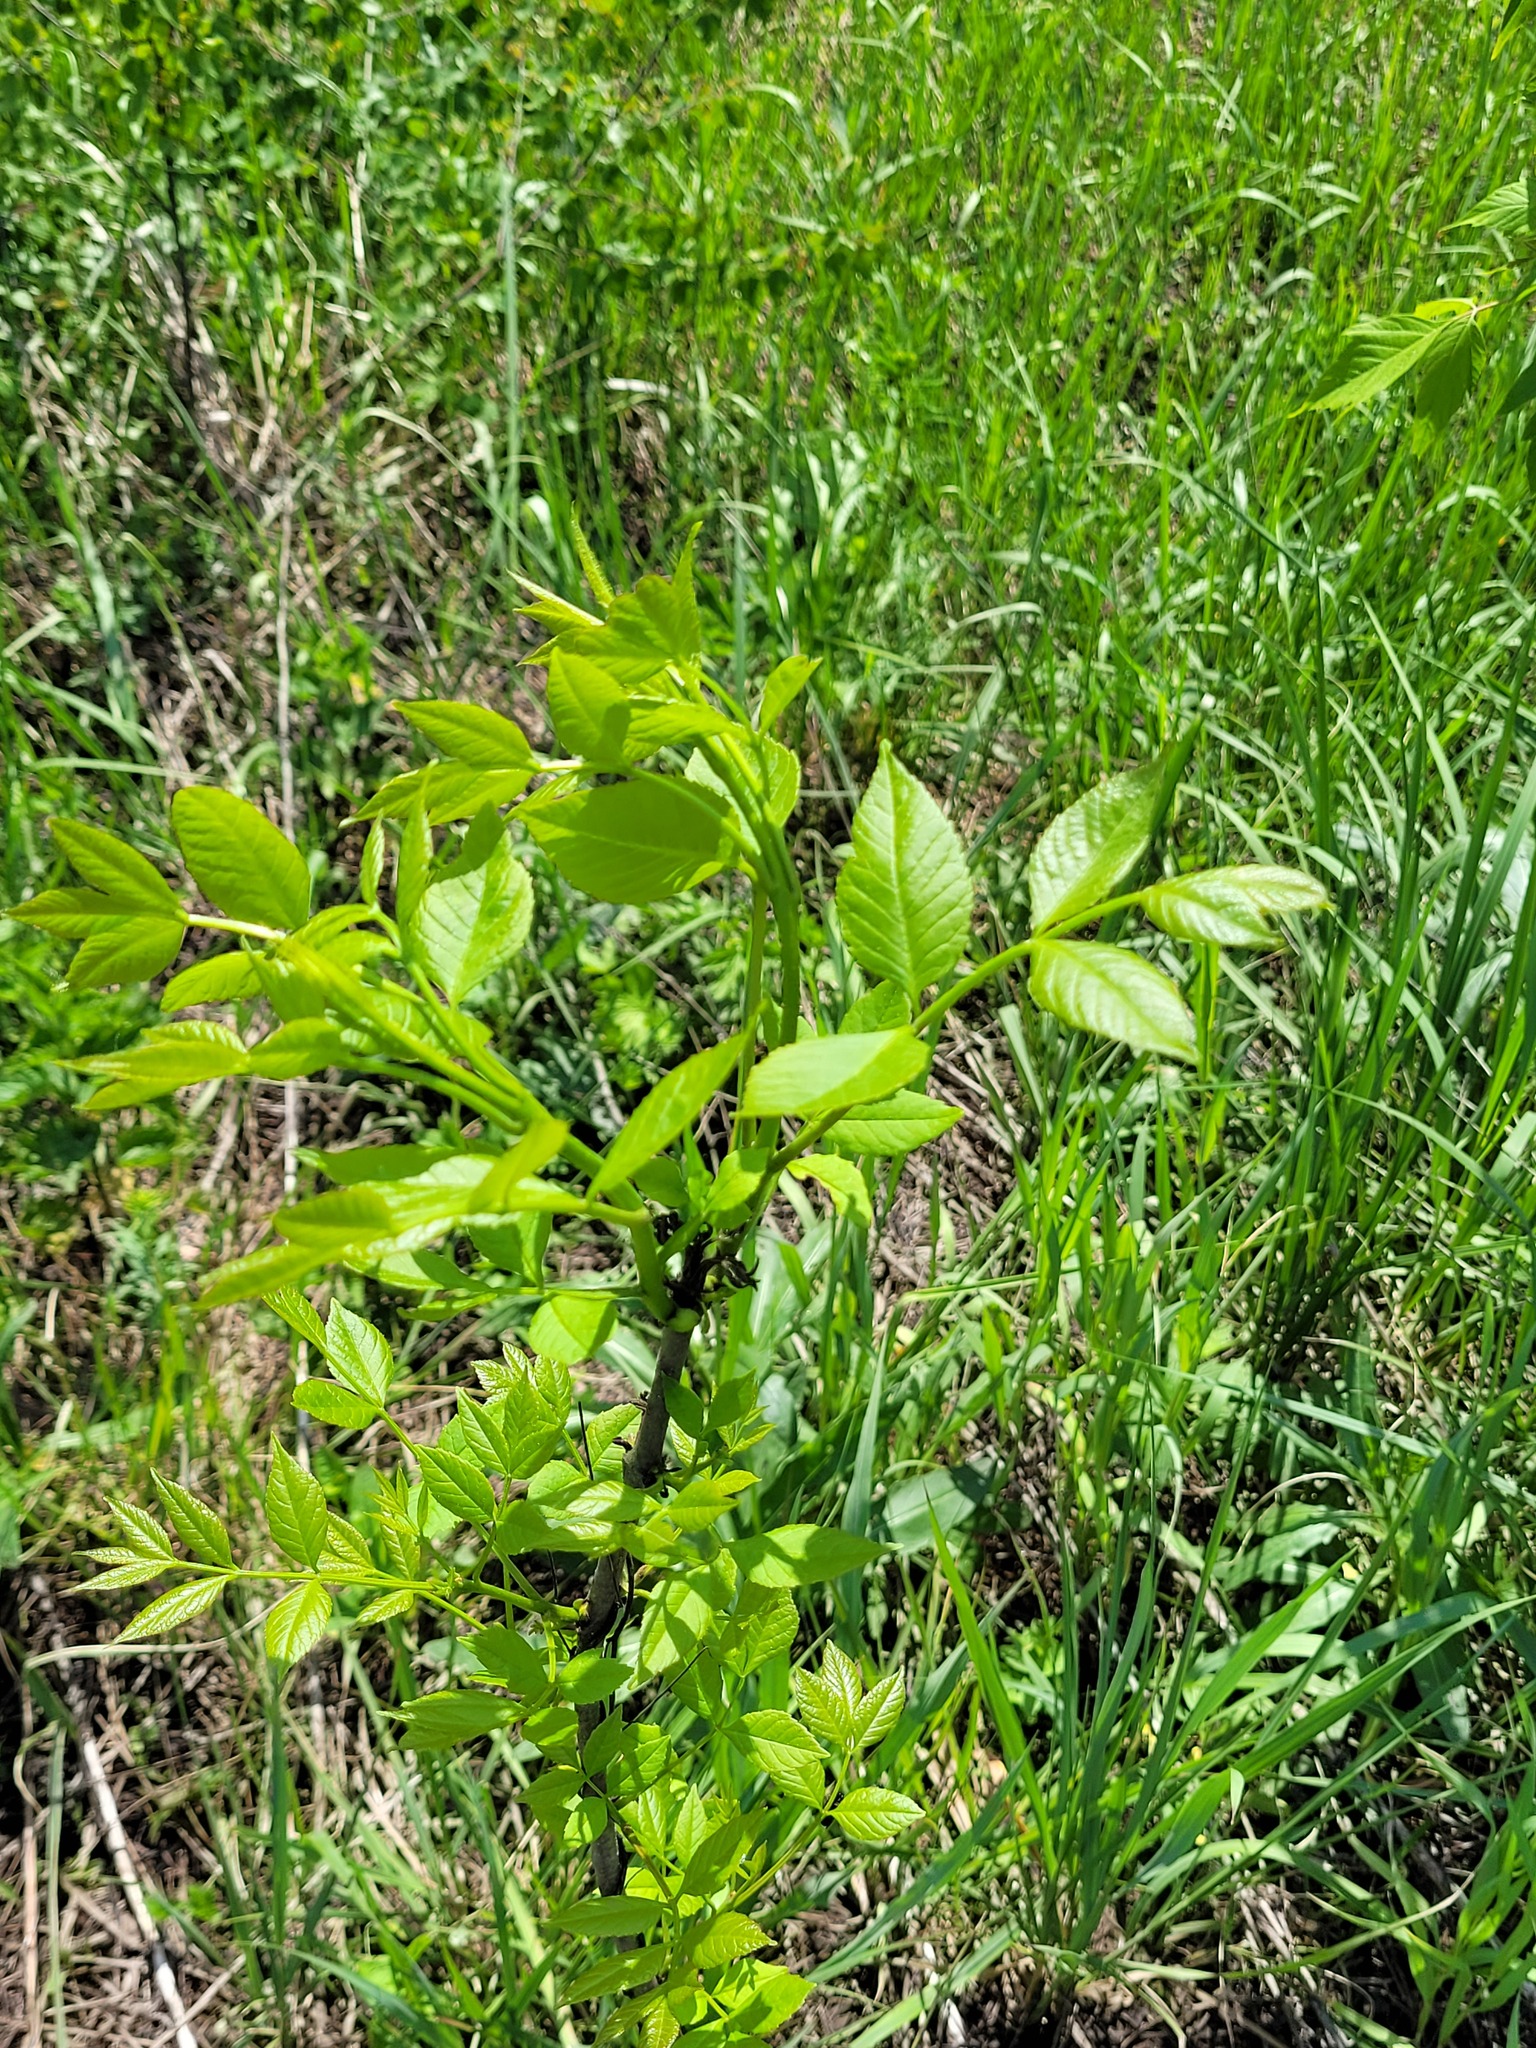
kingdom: Plantae
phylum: Tracheophyta
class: Magnoliopsida
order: Lamiales
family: Oleaceae
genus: Fraxinus
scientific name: Fraxinus pennsylvanica
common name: Green ash
